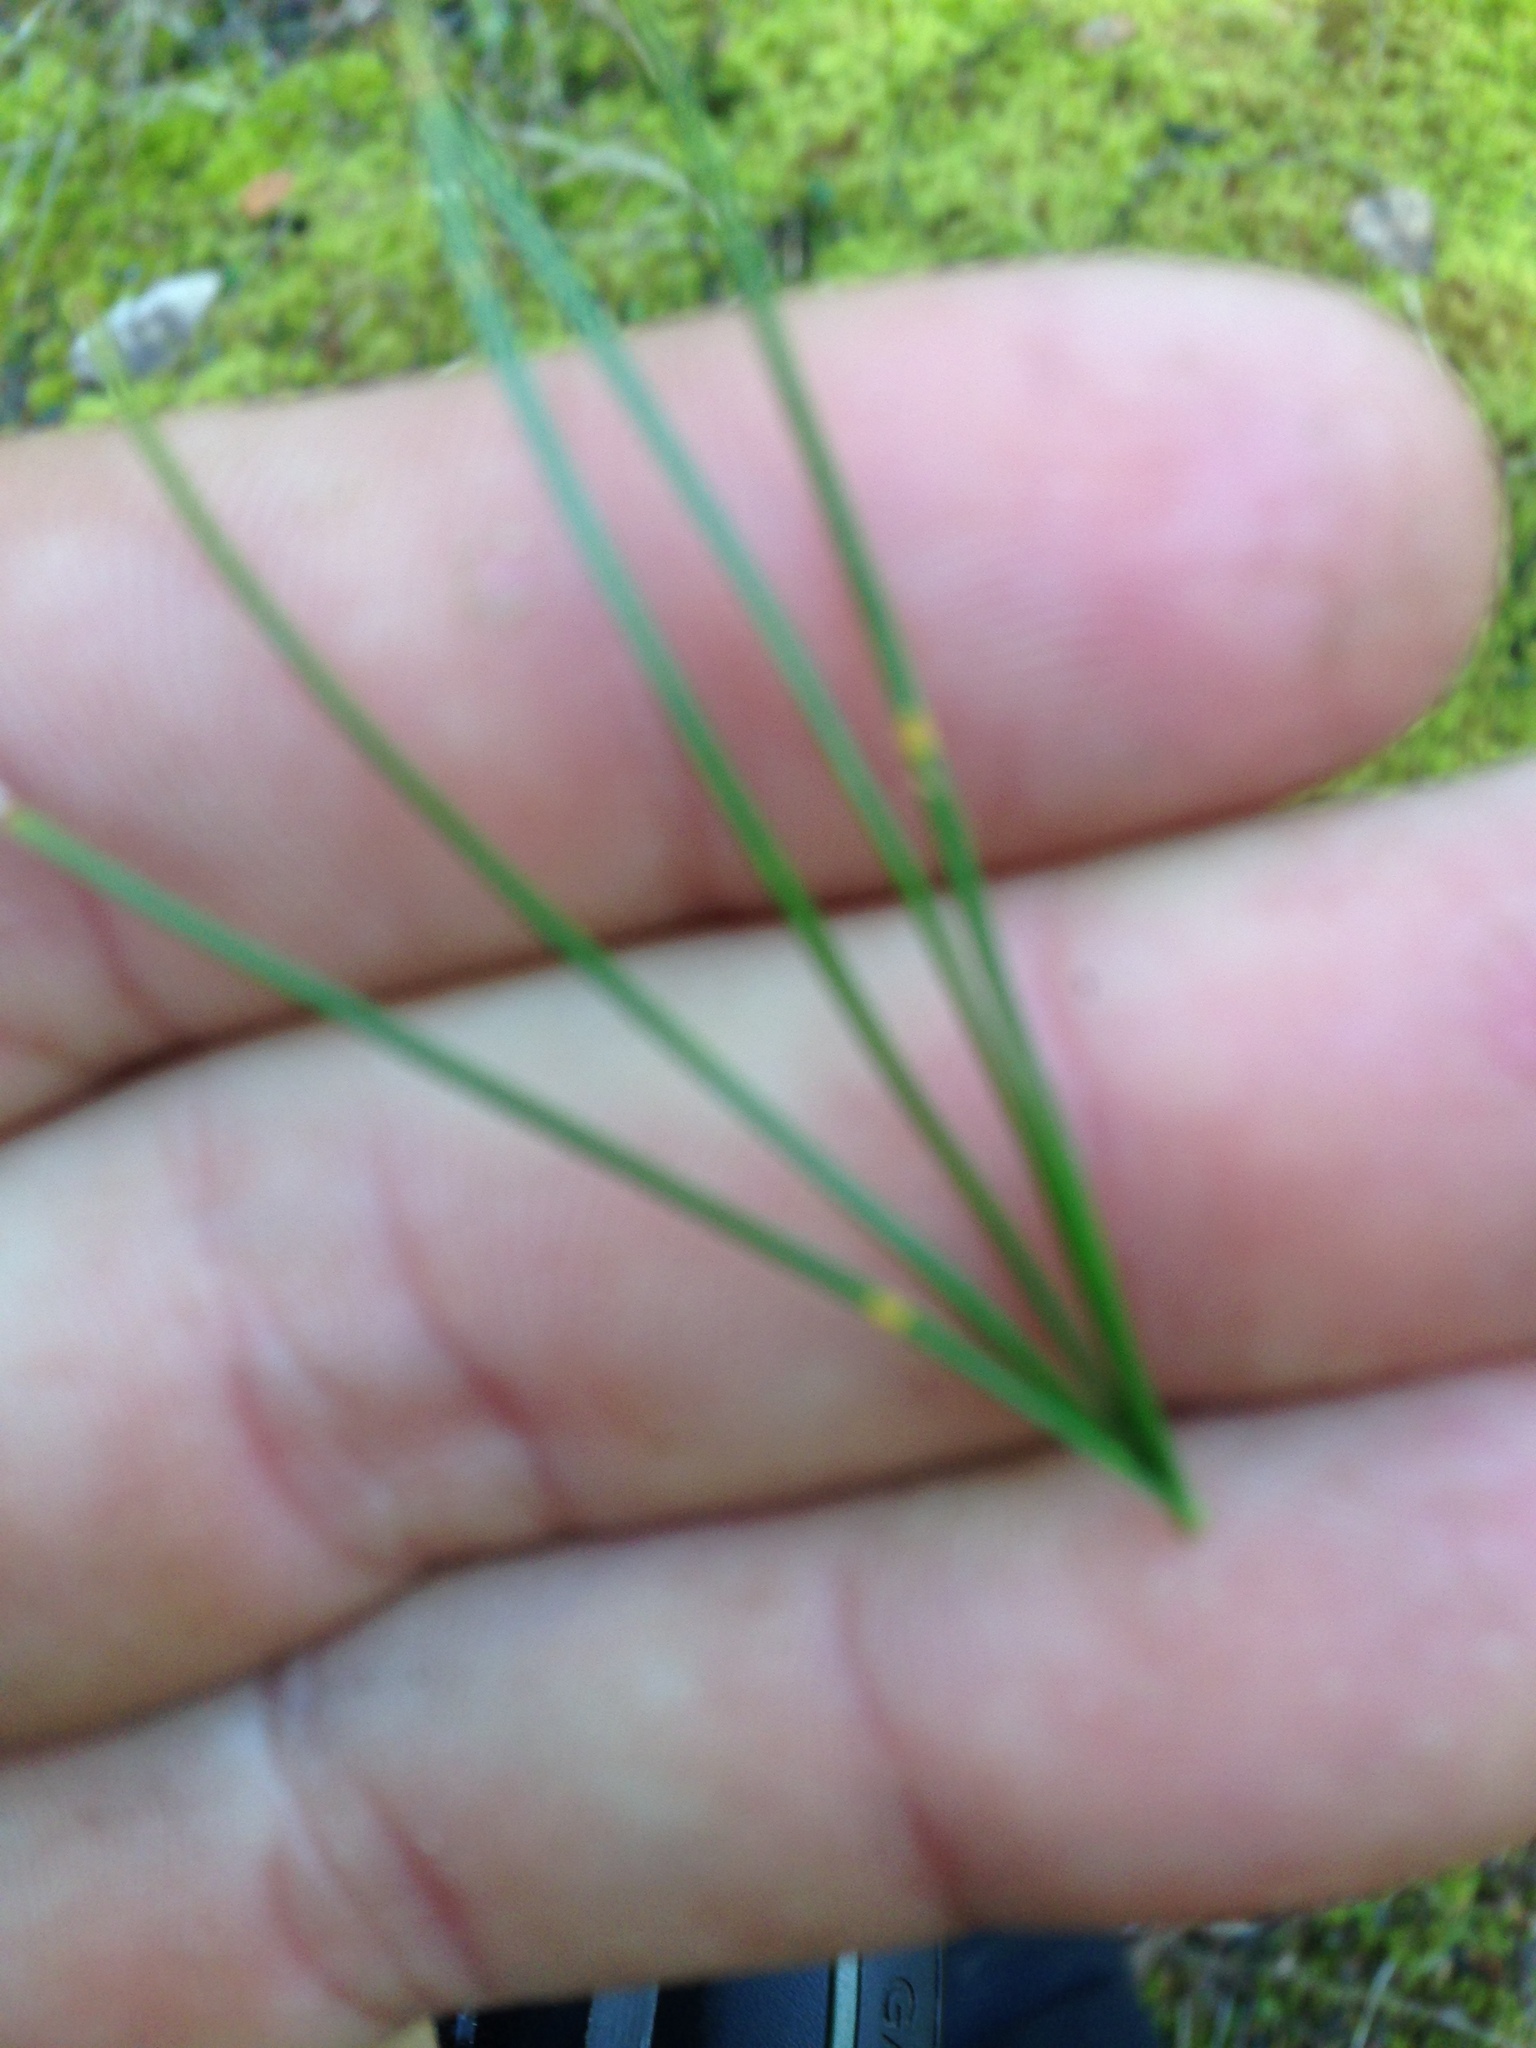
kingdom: Plantae
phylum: Tracheophyta
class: Pinopsida
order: Pinales
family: Pinaceae
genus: Pinus
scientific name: Pinus monticola
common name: Western white pine
